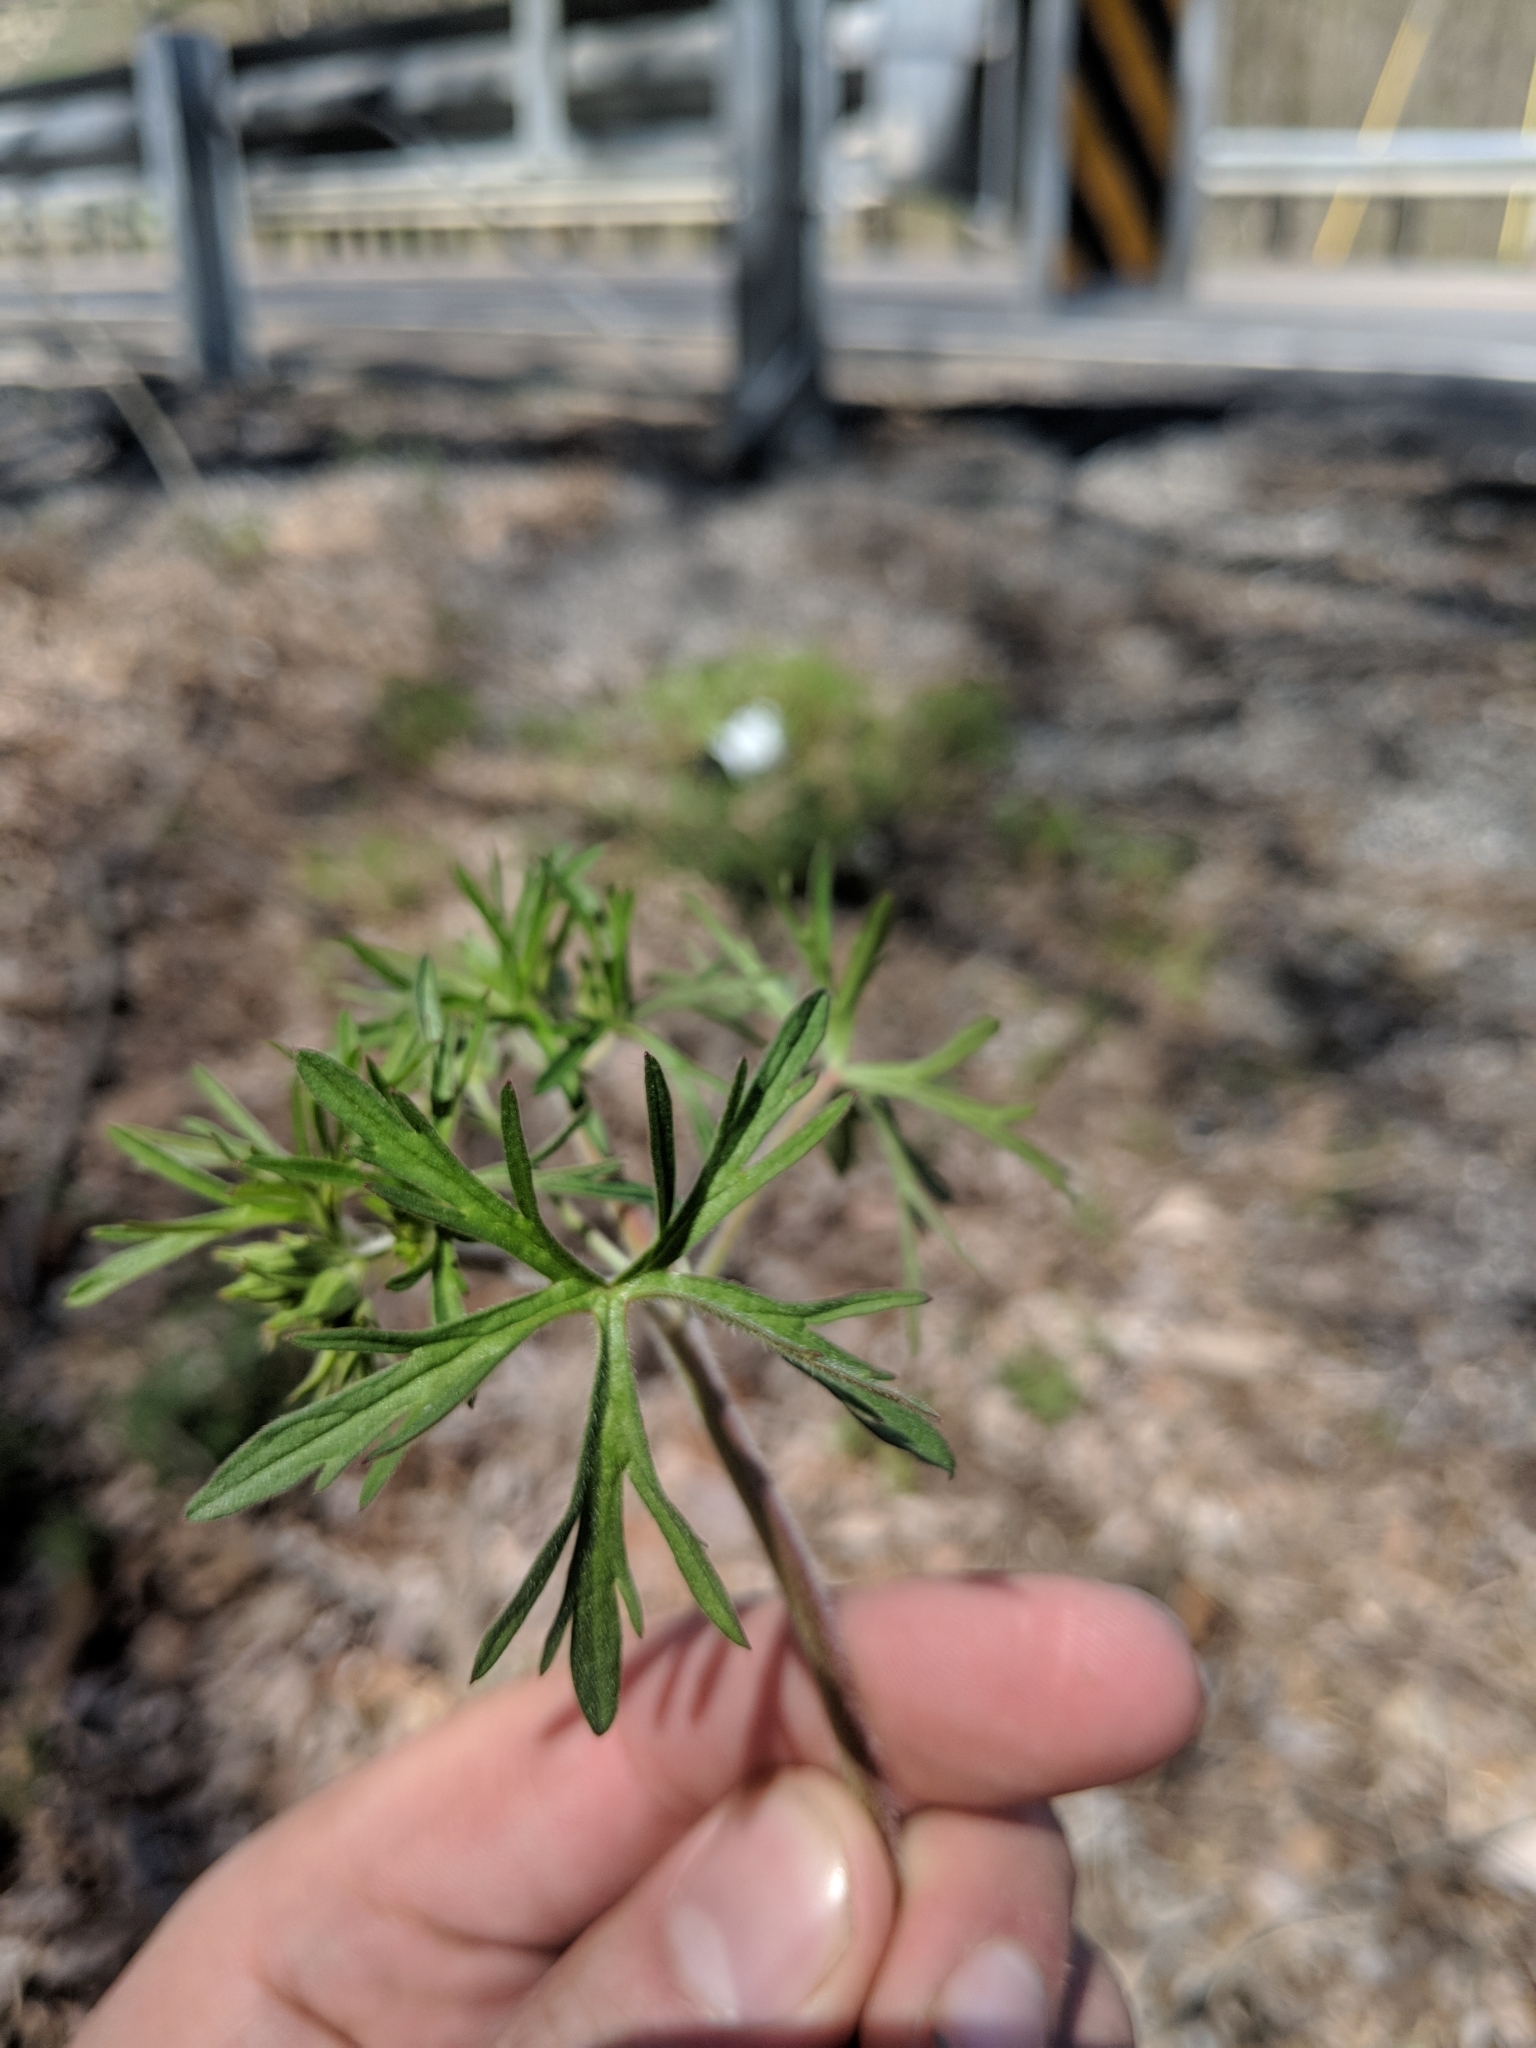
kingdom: Plantae
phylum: Tracheophyta
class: Magnoliopsida
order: Geraniales
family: Geraniaceae
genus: Geranium
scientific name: Geranium dissectum
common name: Cut-leaved crane's-bill
